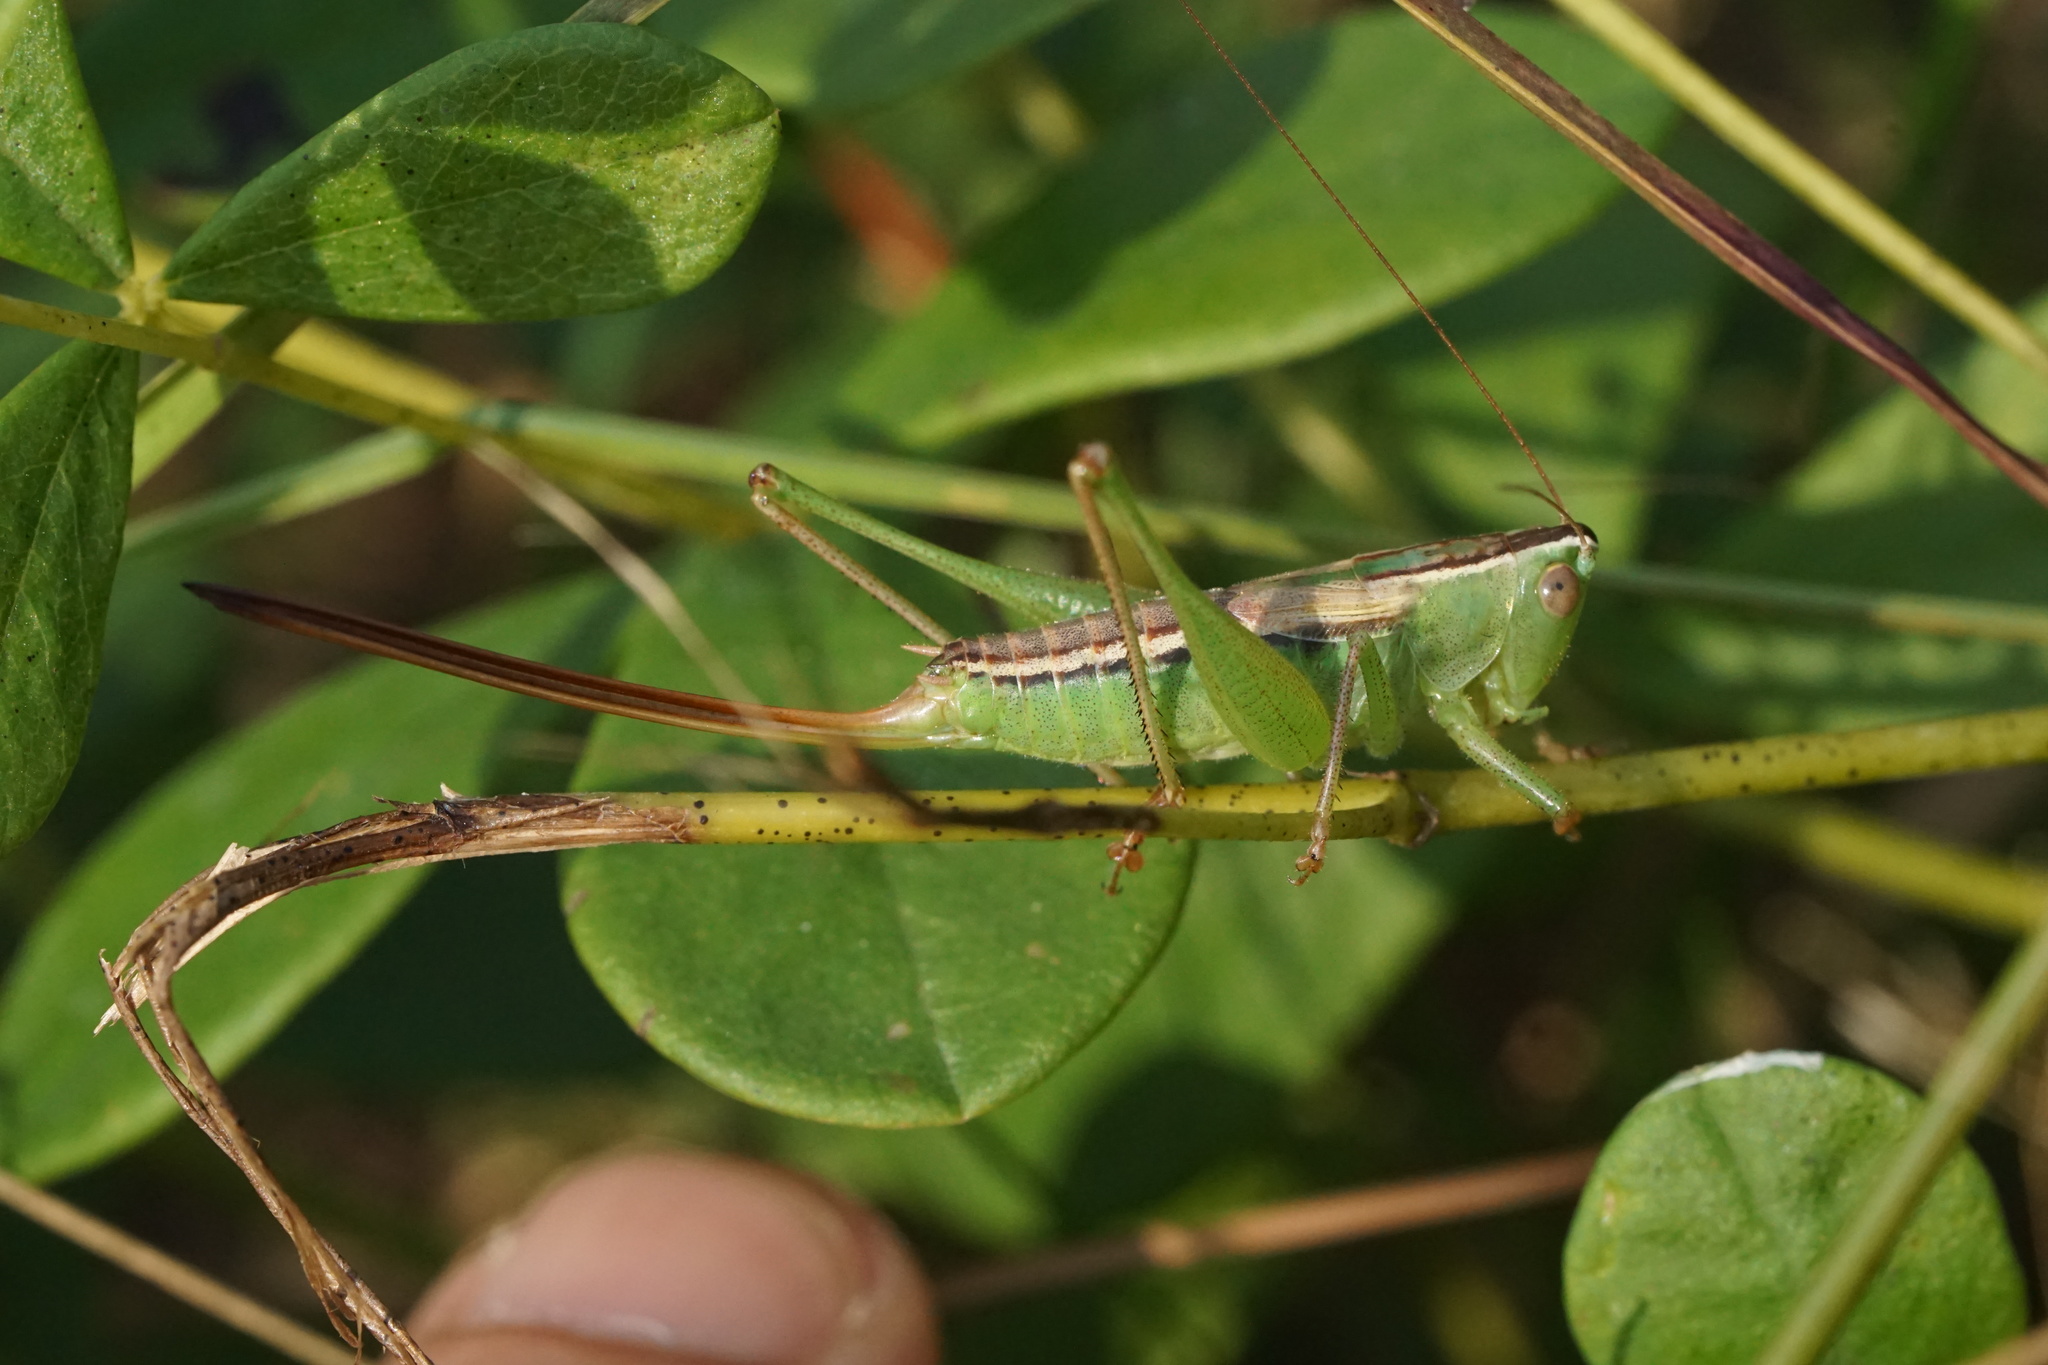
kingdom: Animalia
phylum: Arthropoda
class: Insecta
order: Orthoptera
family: Tettigoniidae
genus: Conocephalus
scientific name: Conocephalus strictus
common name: Straight-lanced katydid
